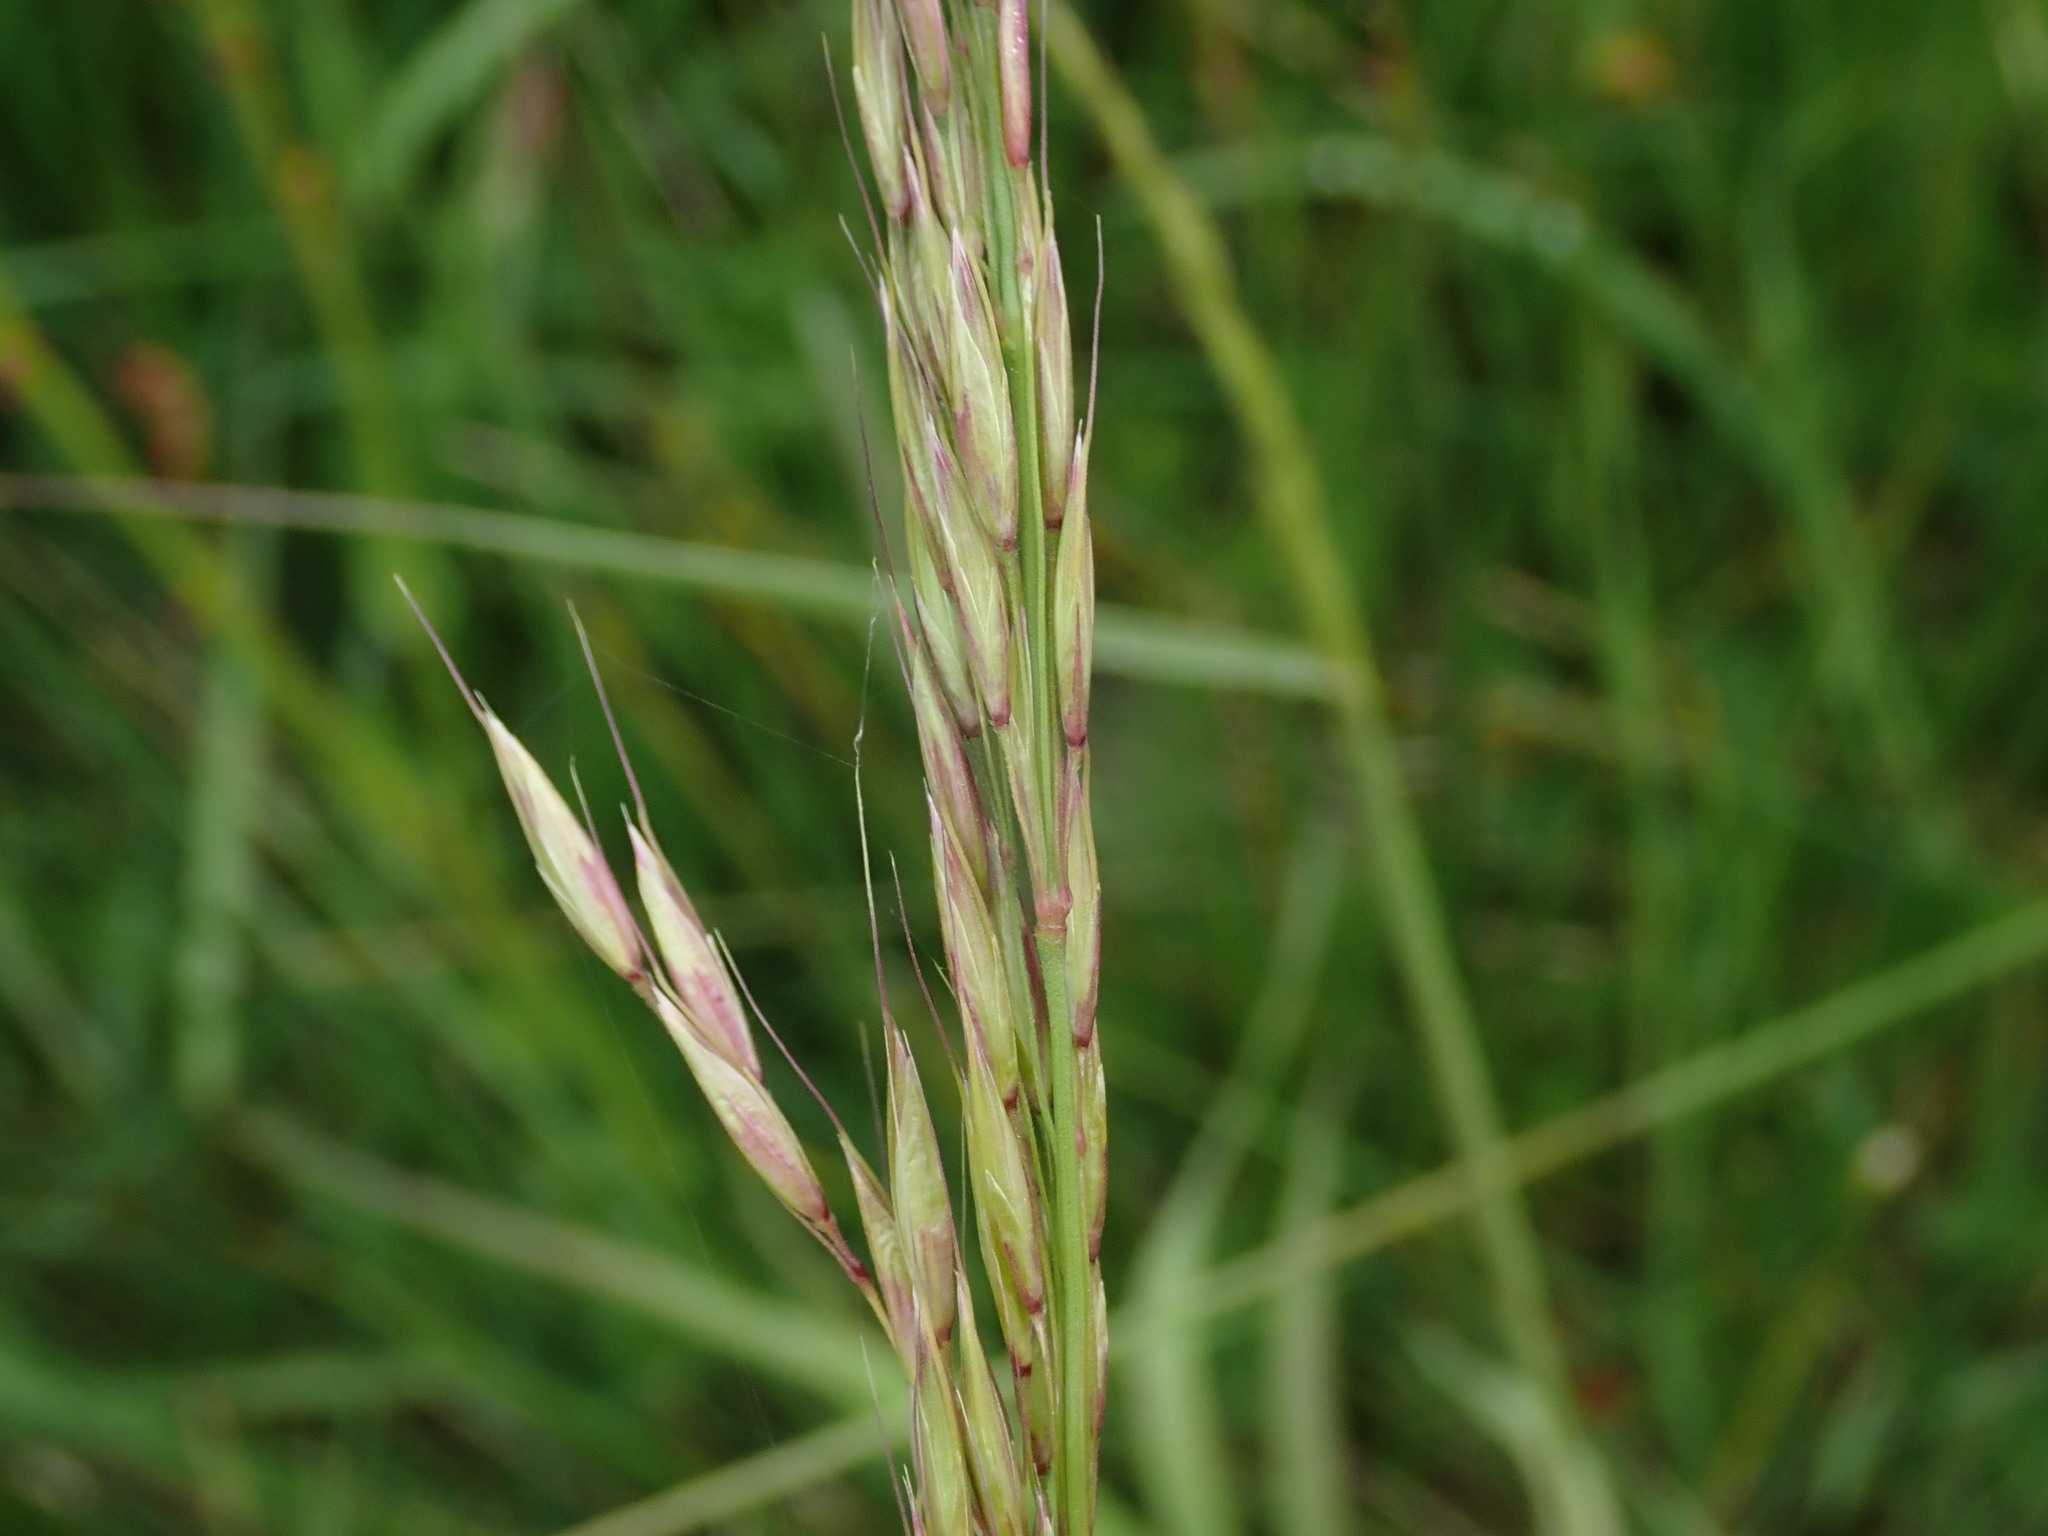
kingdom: Plantae
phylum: Tracheophyta
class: Liliopsida
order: Poales
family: Poaceae
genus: Arrhenatherum
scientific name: Arrhenatherum elatius
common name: Tall oatgrass
